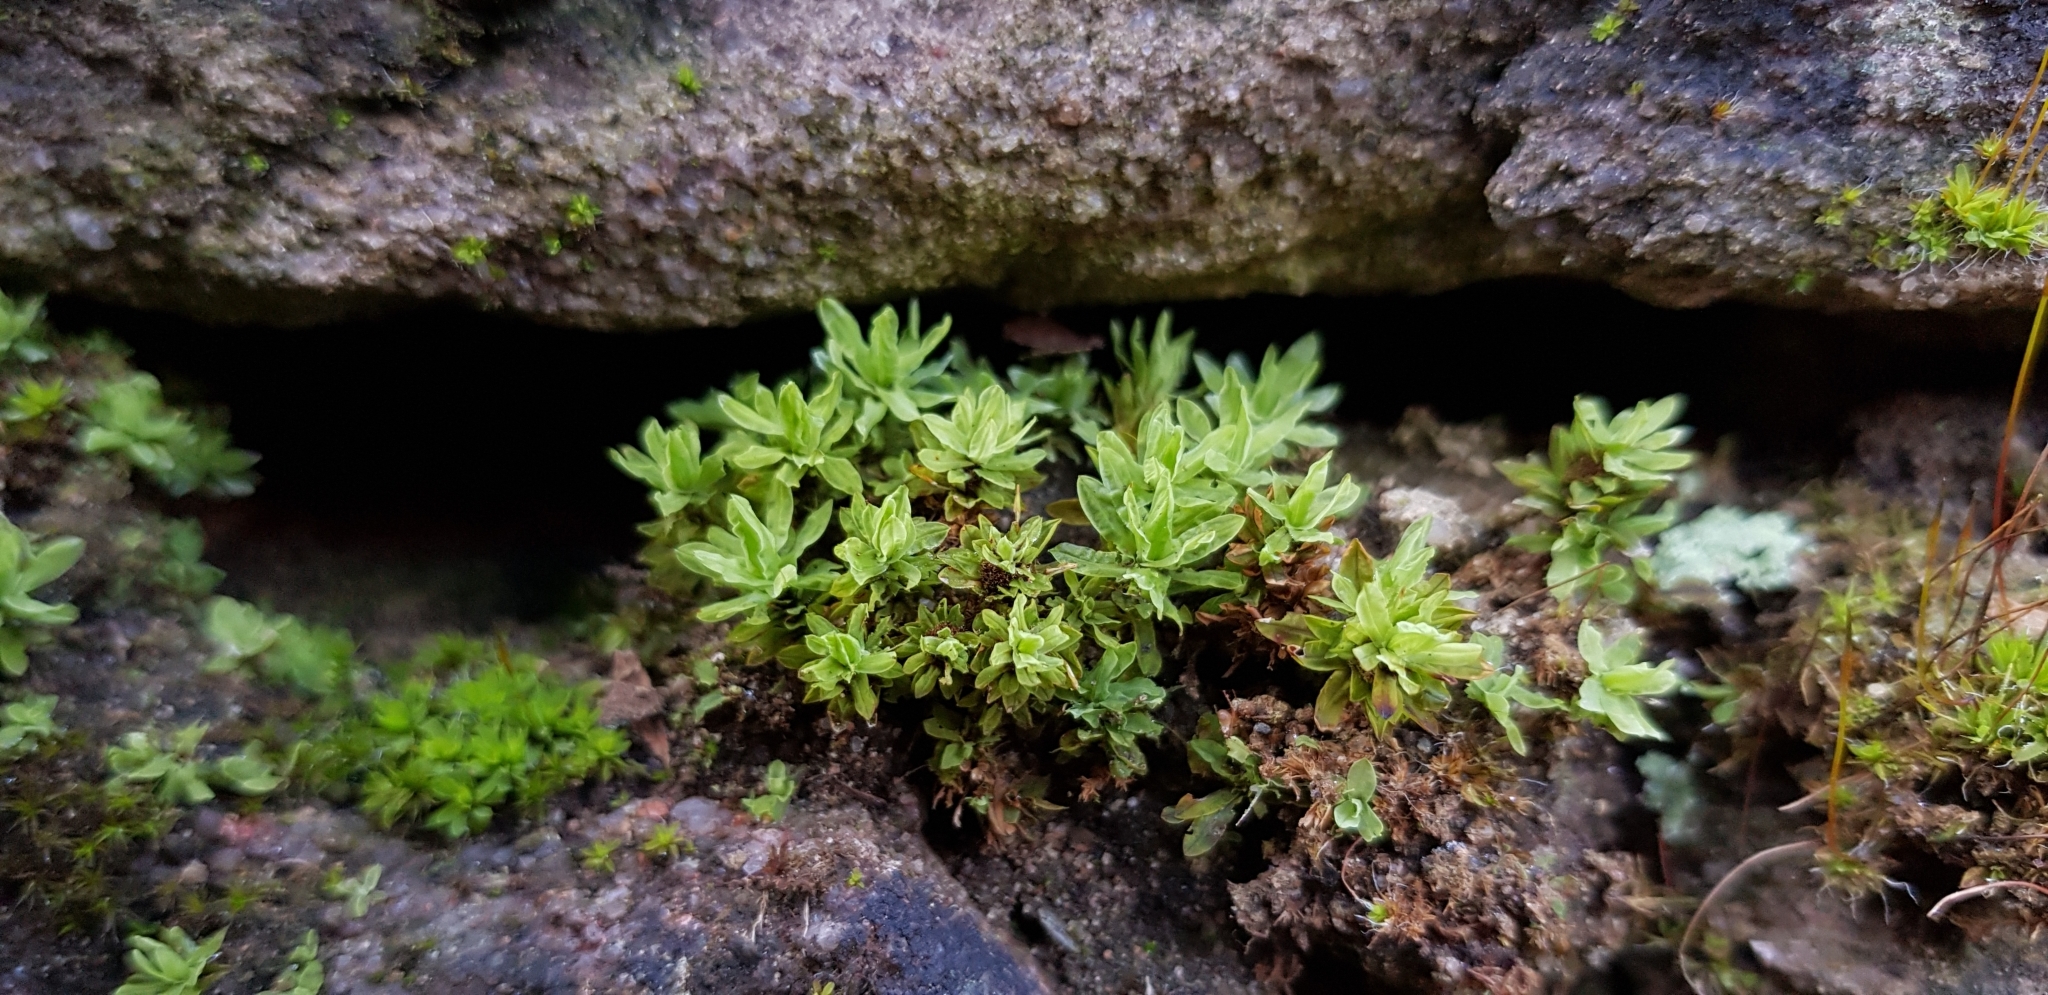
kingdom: Plantae
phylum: Bryophyta
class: Bryopsida
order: Encalyptales
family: Encalyptaceae
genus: Encalypta
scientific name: Encalypta streptocarpa
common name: Spiral extinguisher-moss
